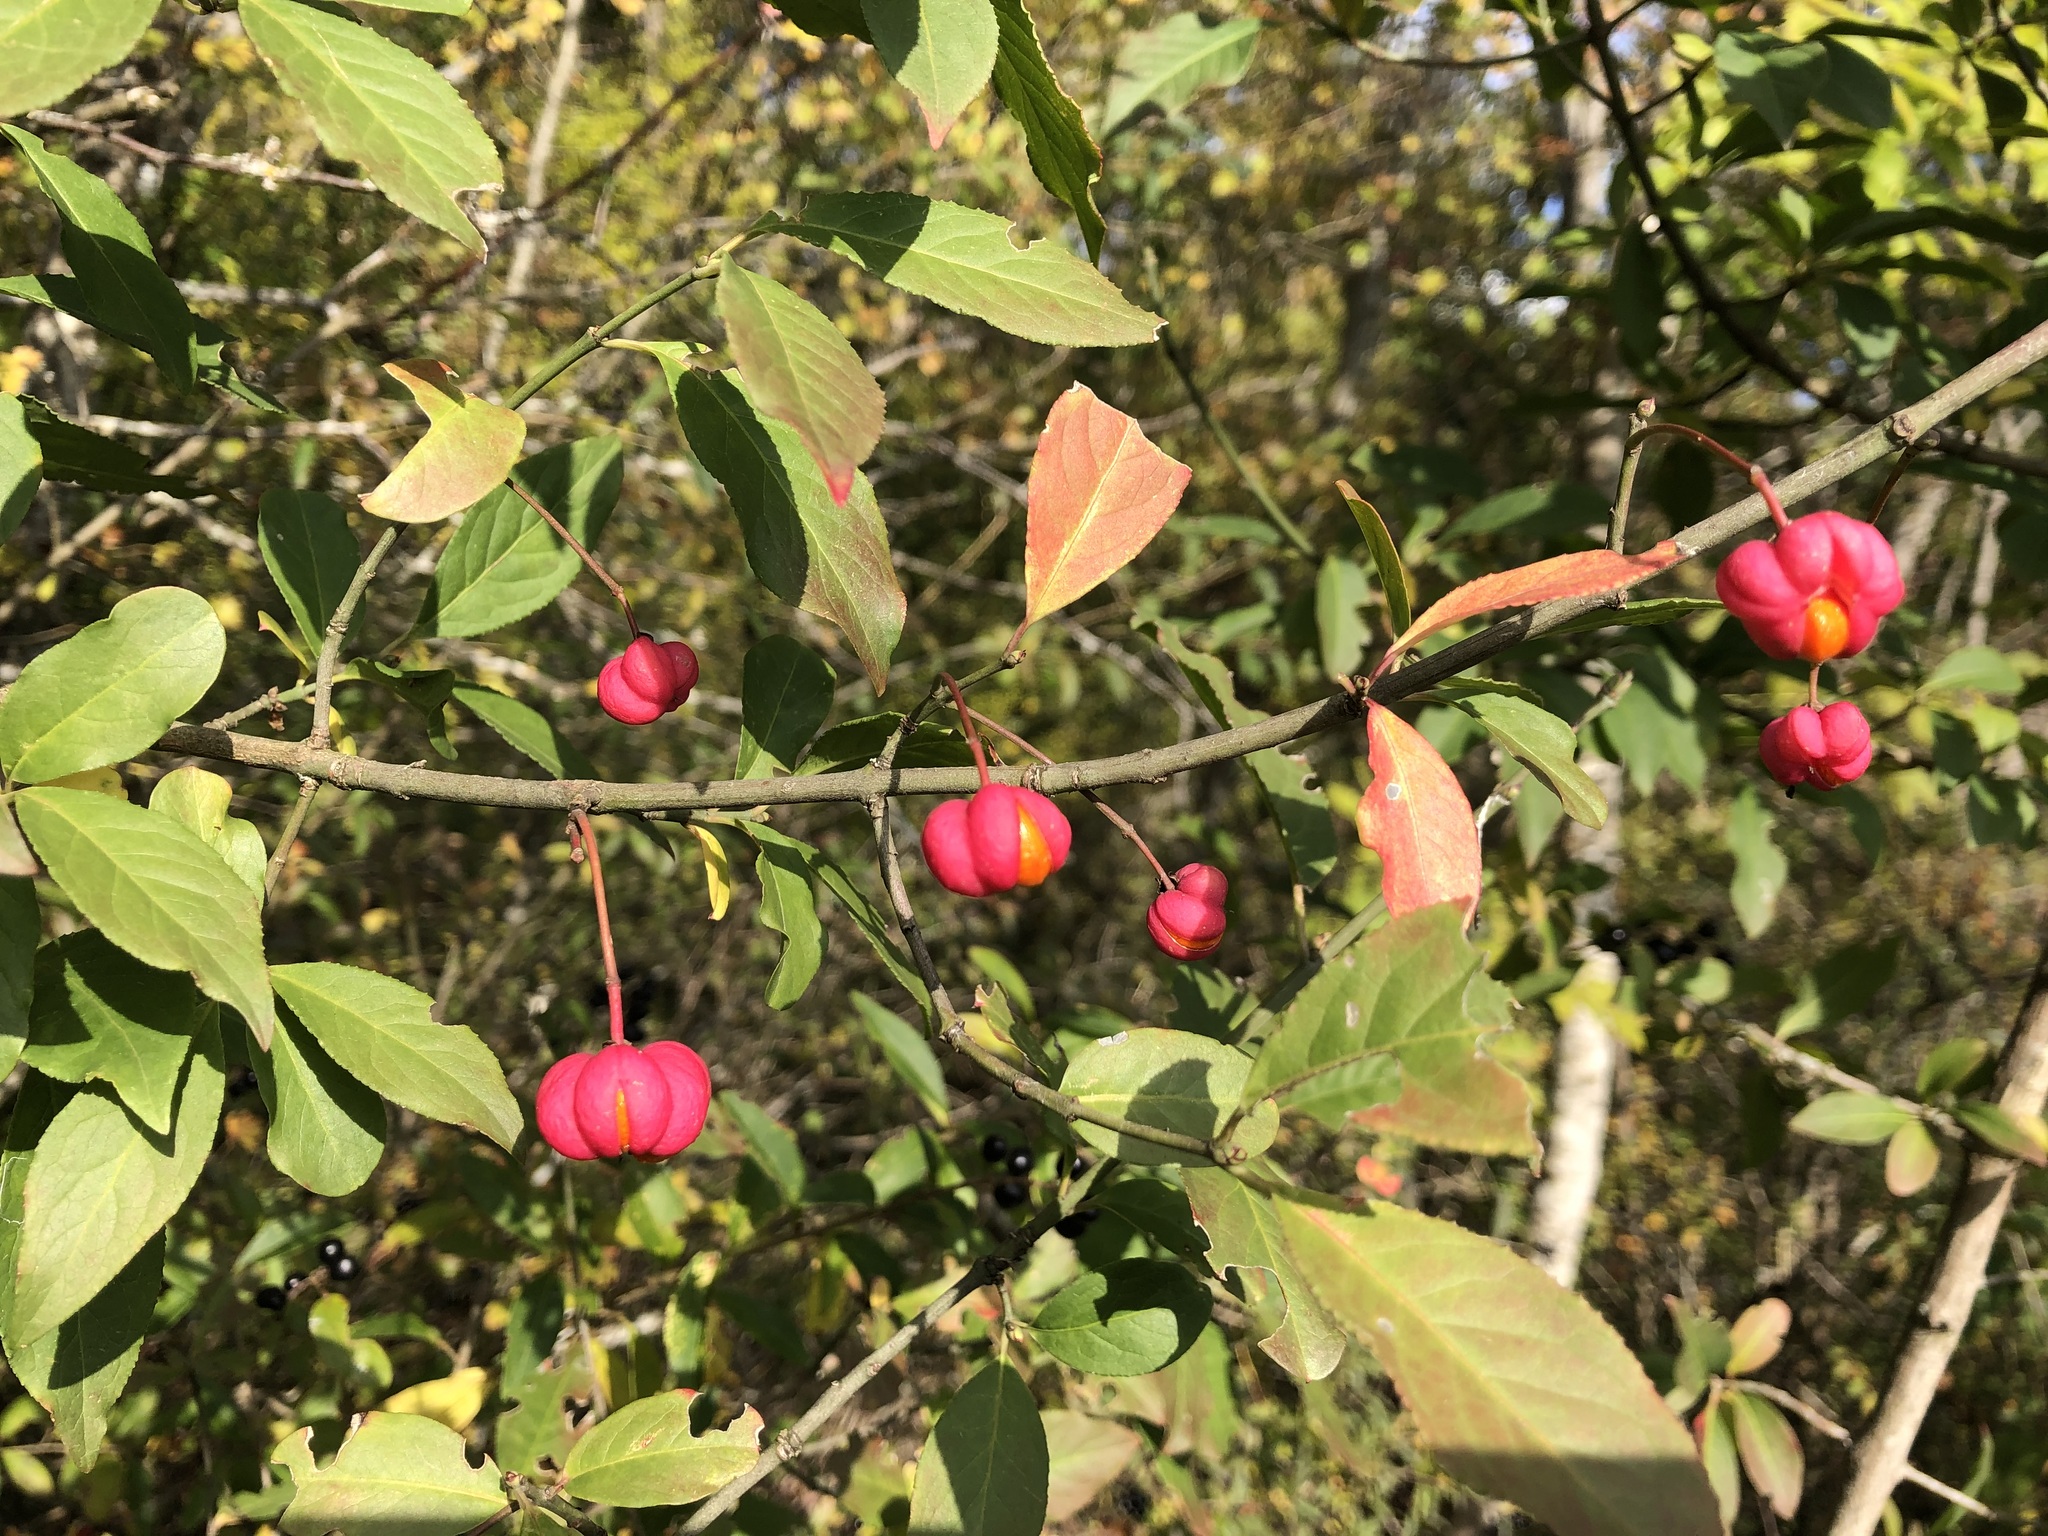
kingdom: Plantae
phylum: Tracheophyta
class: Magnoliopsida
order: Celastrales
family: Celastraceae
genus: Euonymus
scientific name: Euonymus europaeus
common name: Spindle
